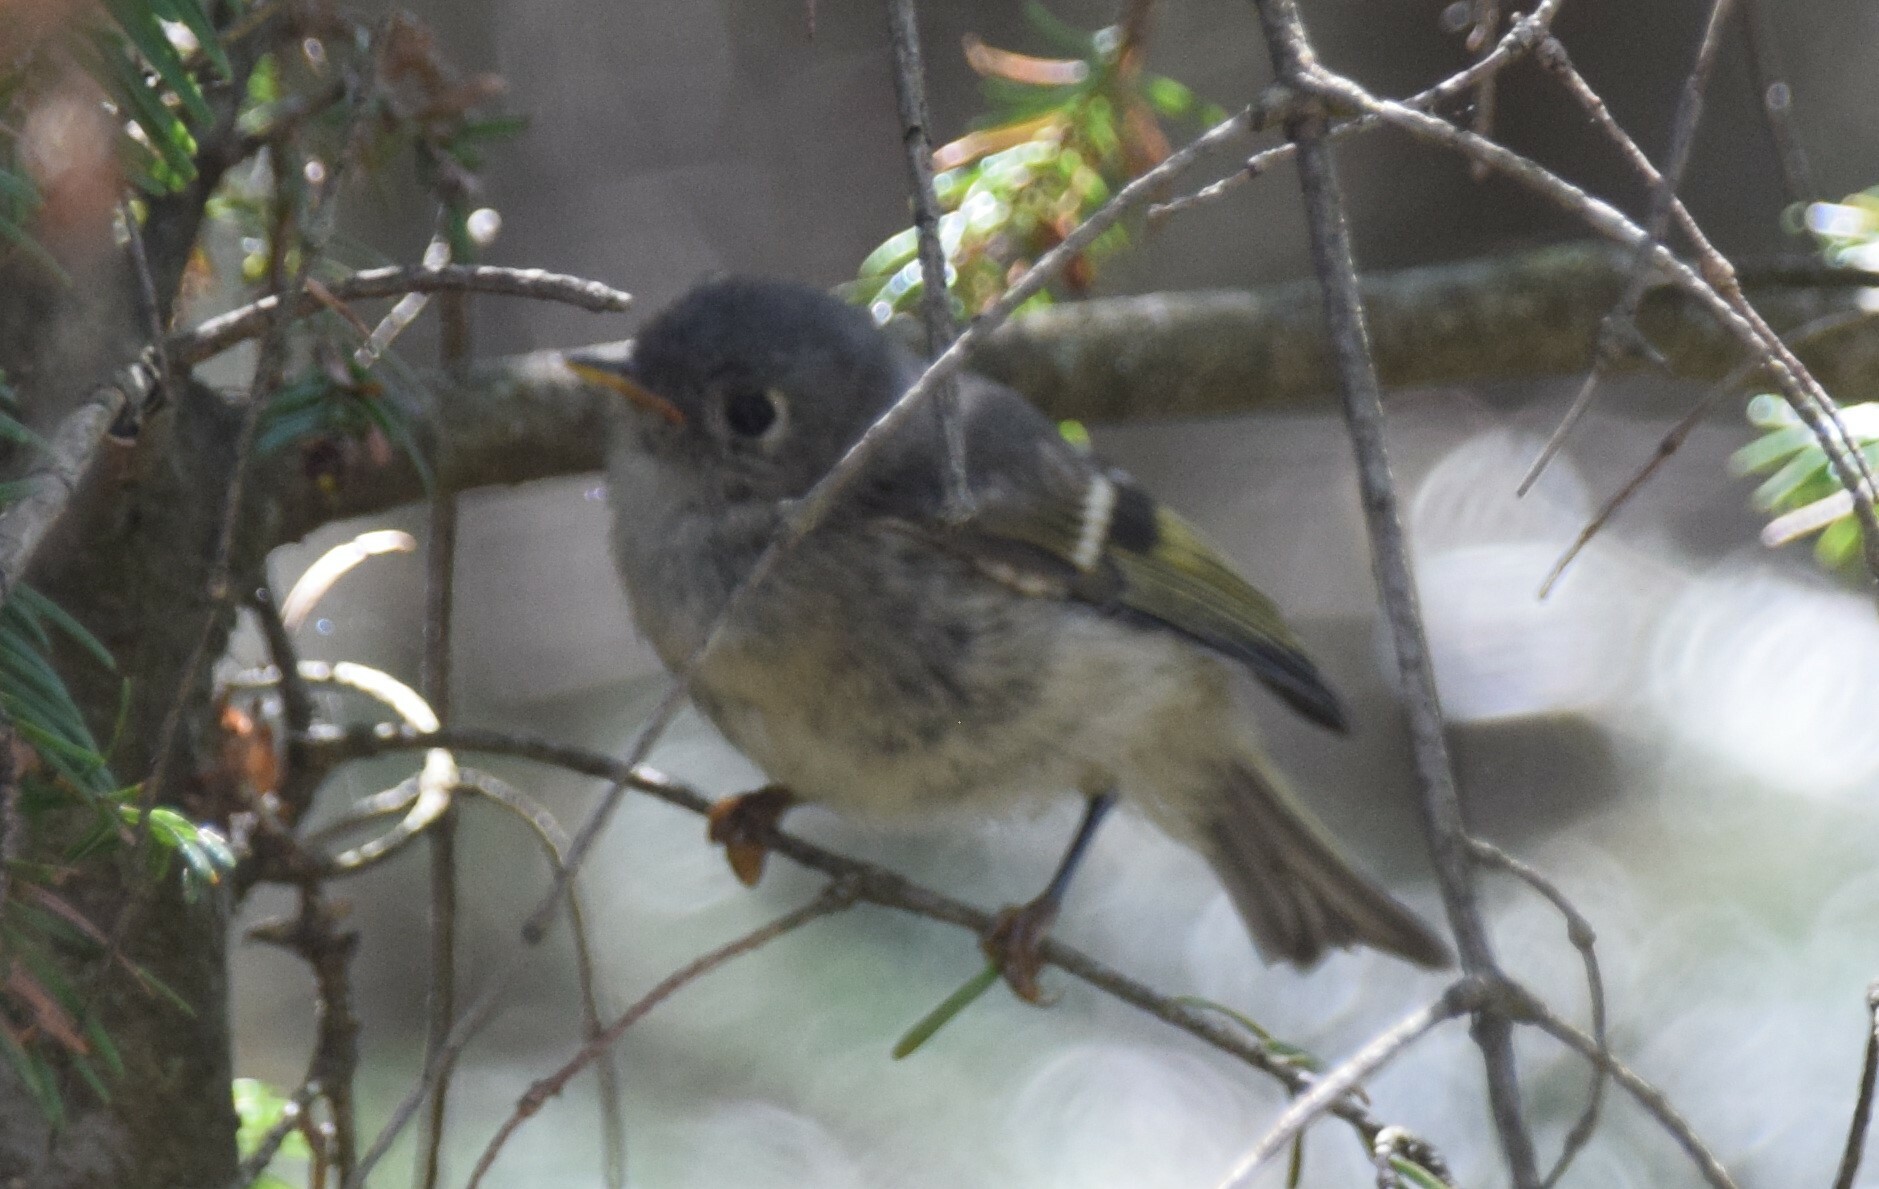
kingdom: Animalia
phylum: Chordata
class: Aves
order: Passeriformes
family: Regulidae
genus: Regulus
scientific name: Regulus calendula
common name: Ruby-crowned kinglet
